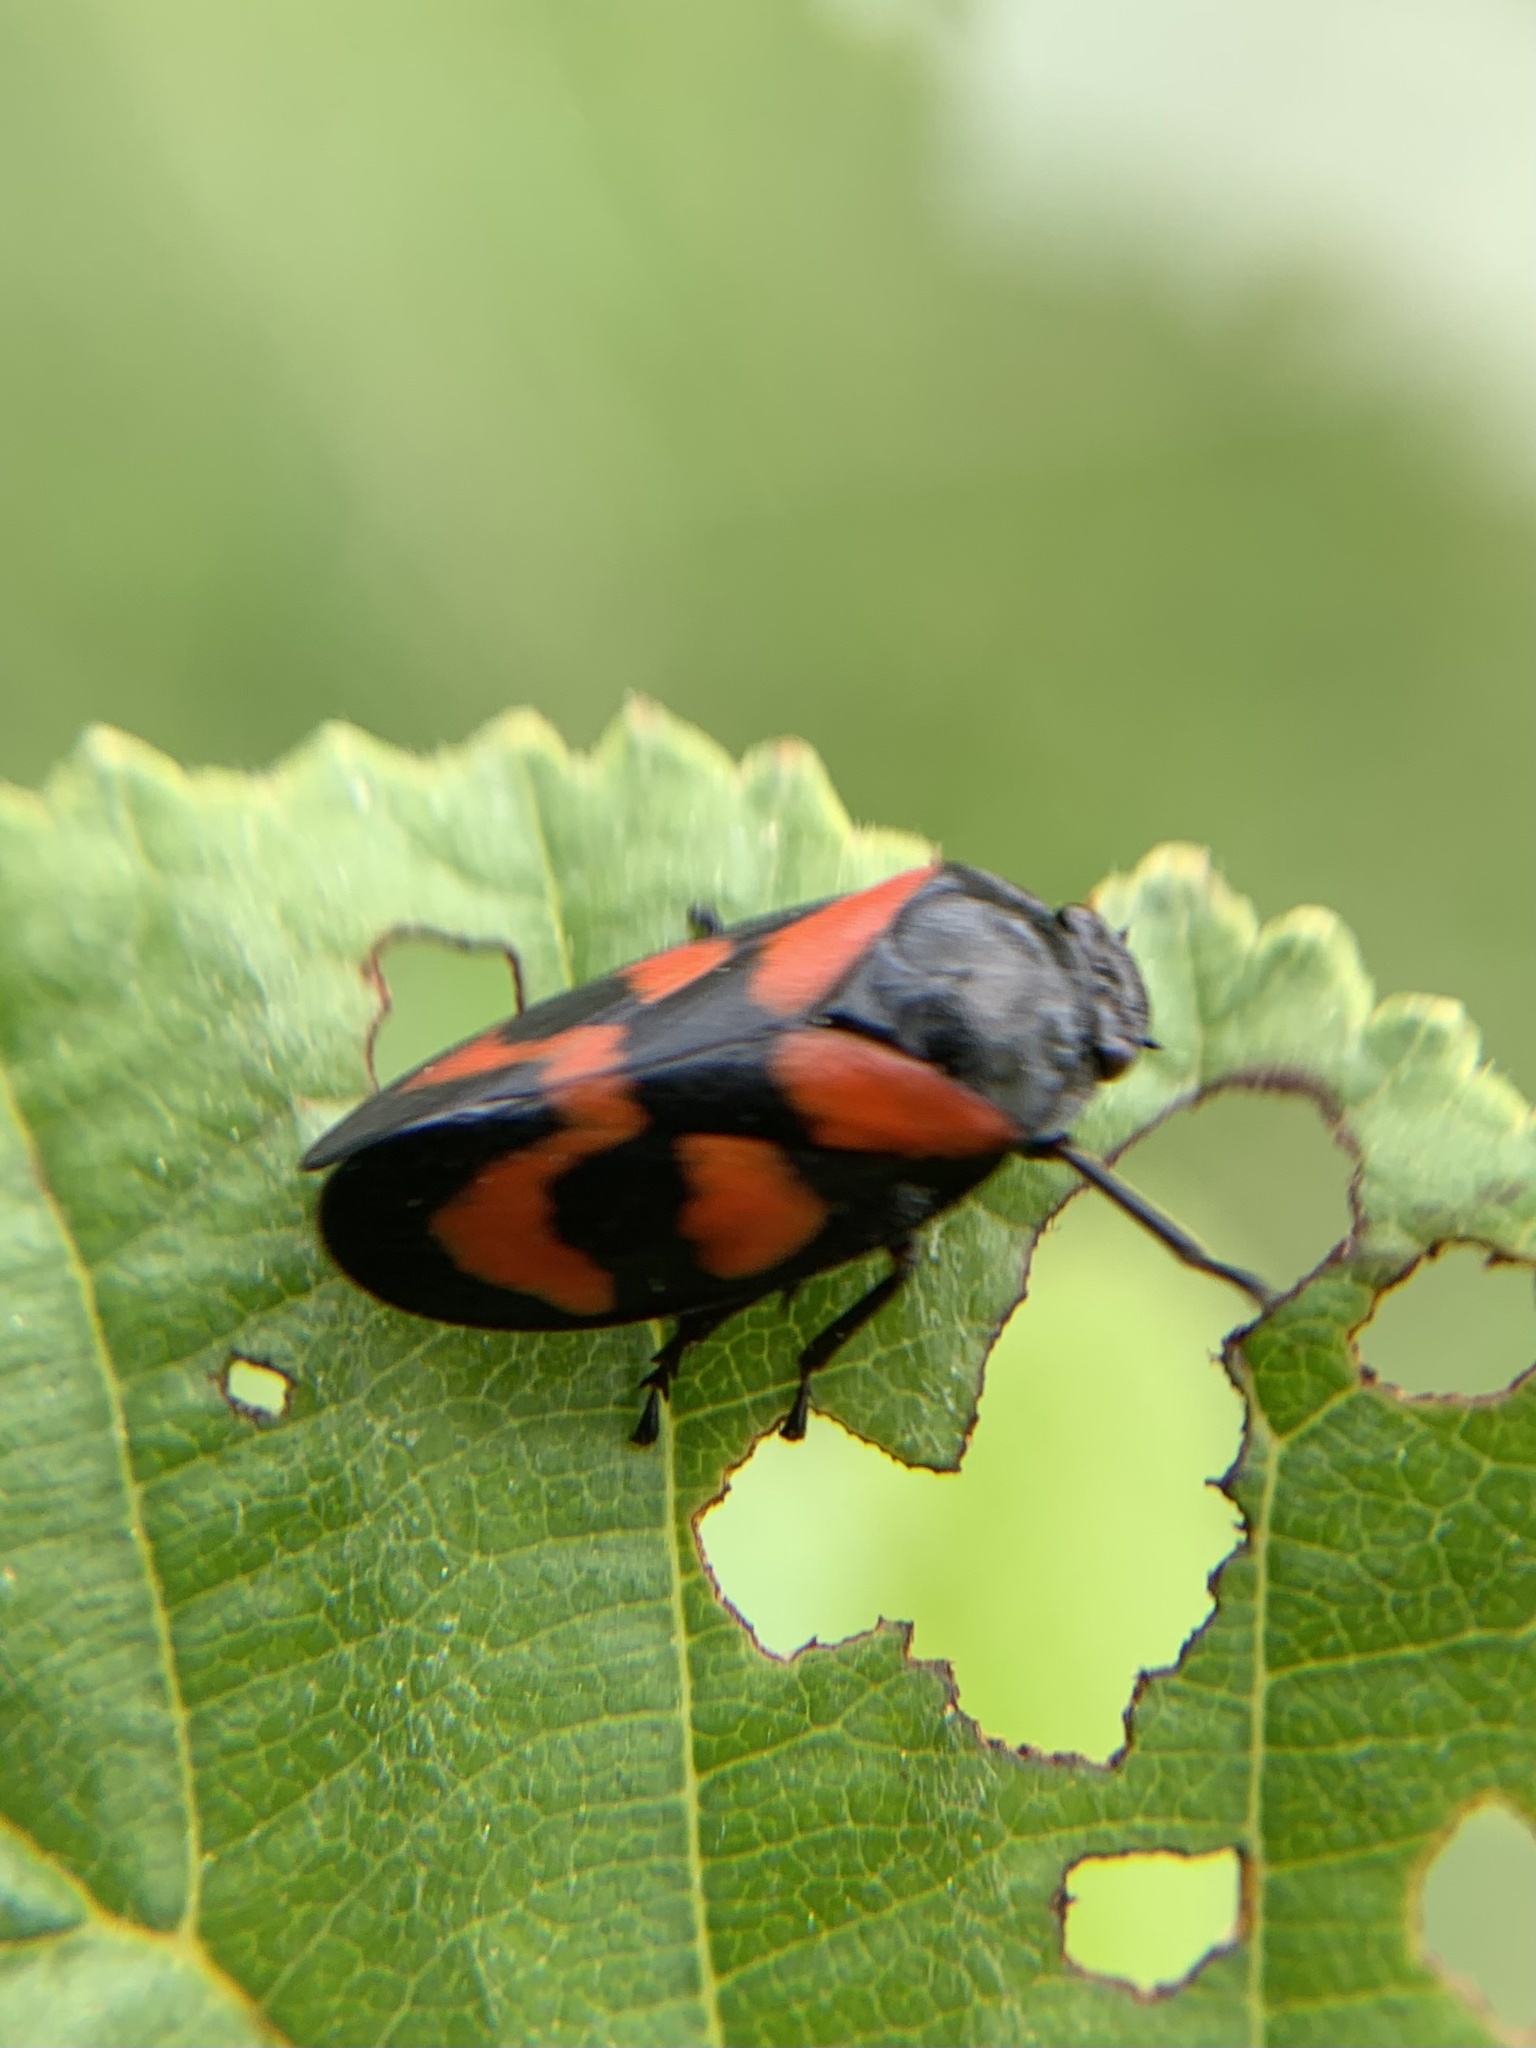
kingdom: Animalia
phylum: Arthropoda
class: Insecta
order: Hemiptera
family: Cercopidae
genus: Cercopis
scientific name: Cercopis vulnerata
